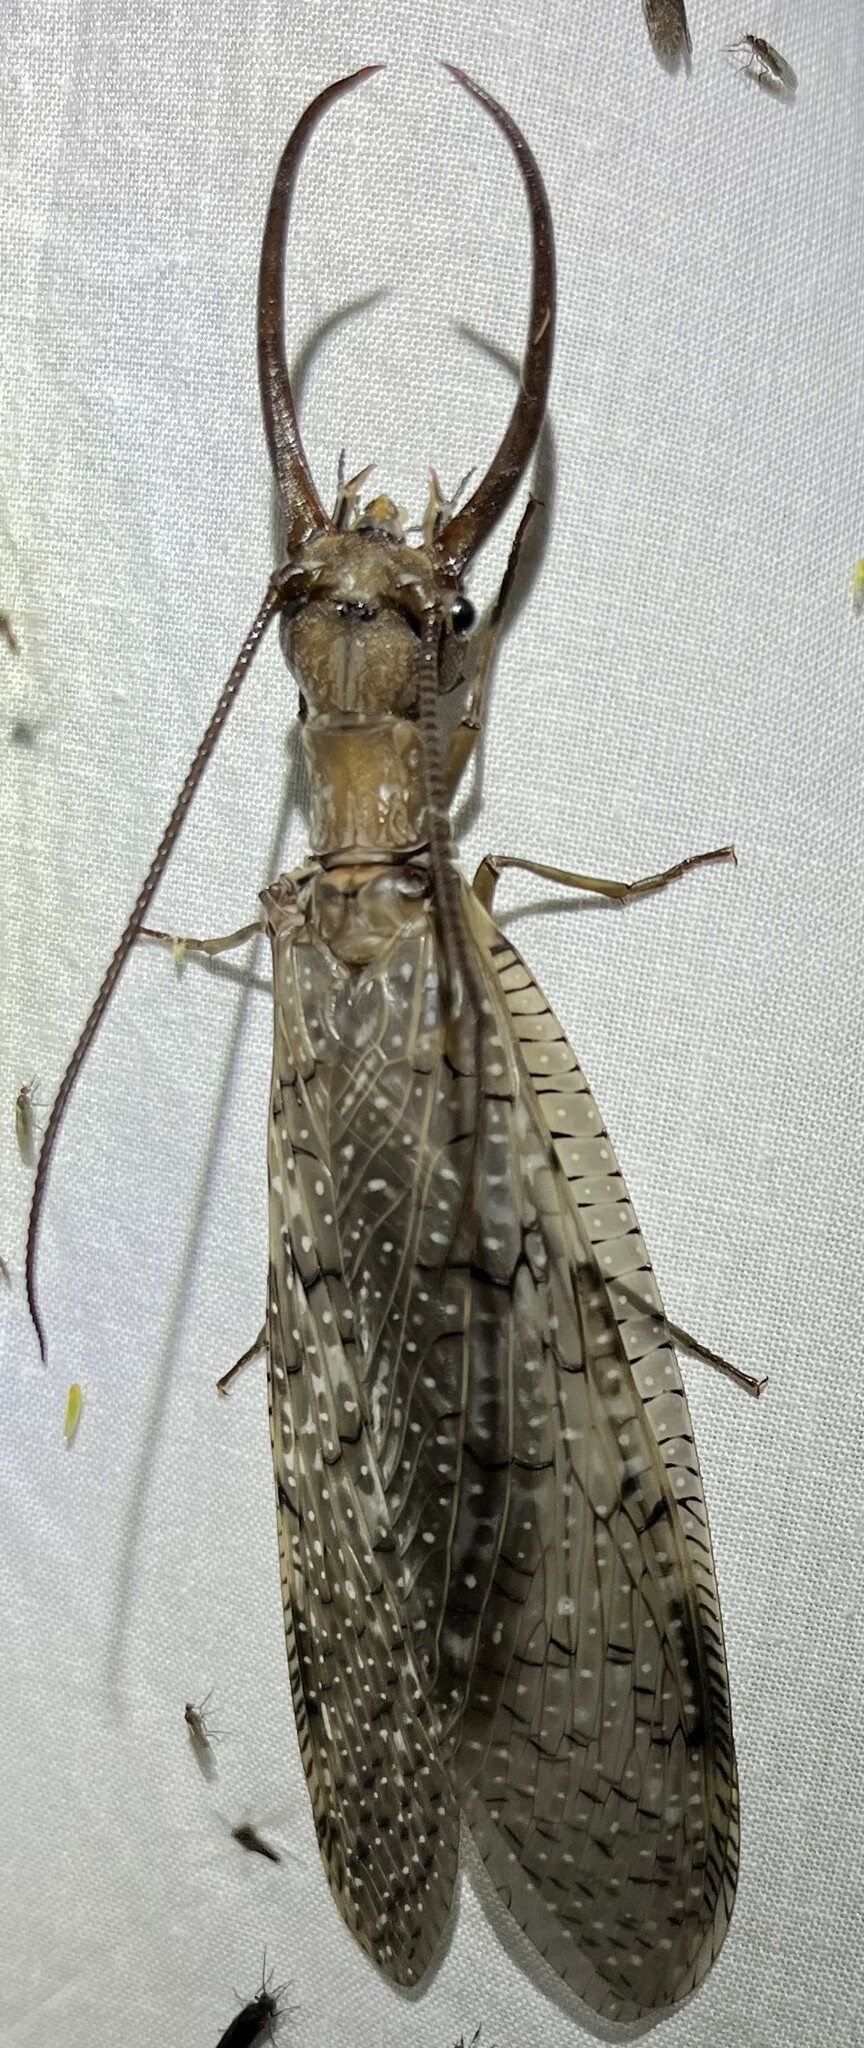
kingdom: Animalia
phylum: Arthropoda
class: Insecta
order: Megaloptera
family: Corydalidae
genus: Corydalus
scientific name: Corydalus cornutus
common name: Dobsonfly
